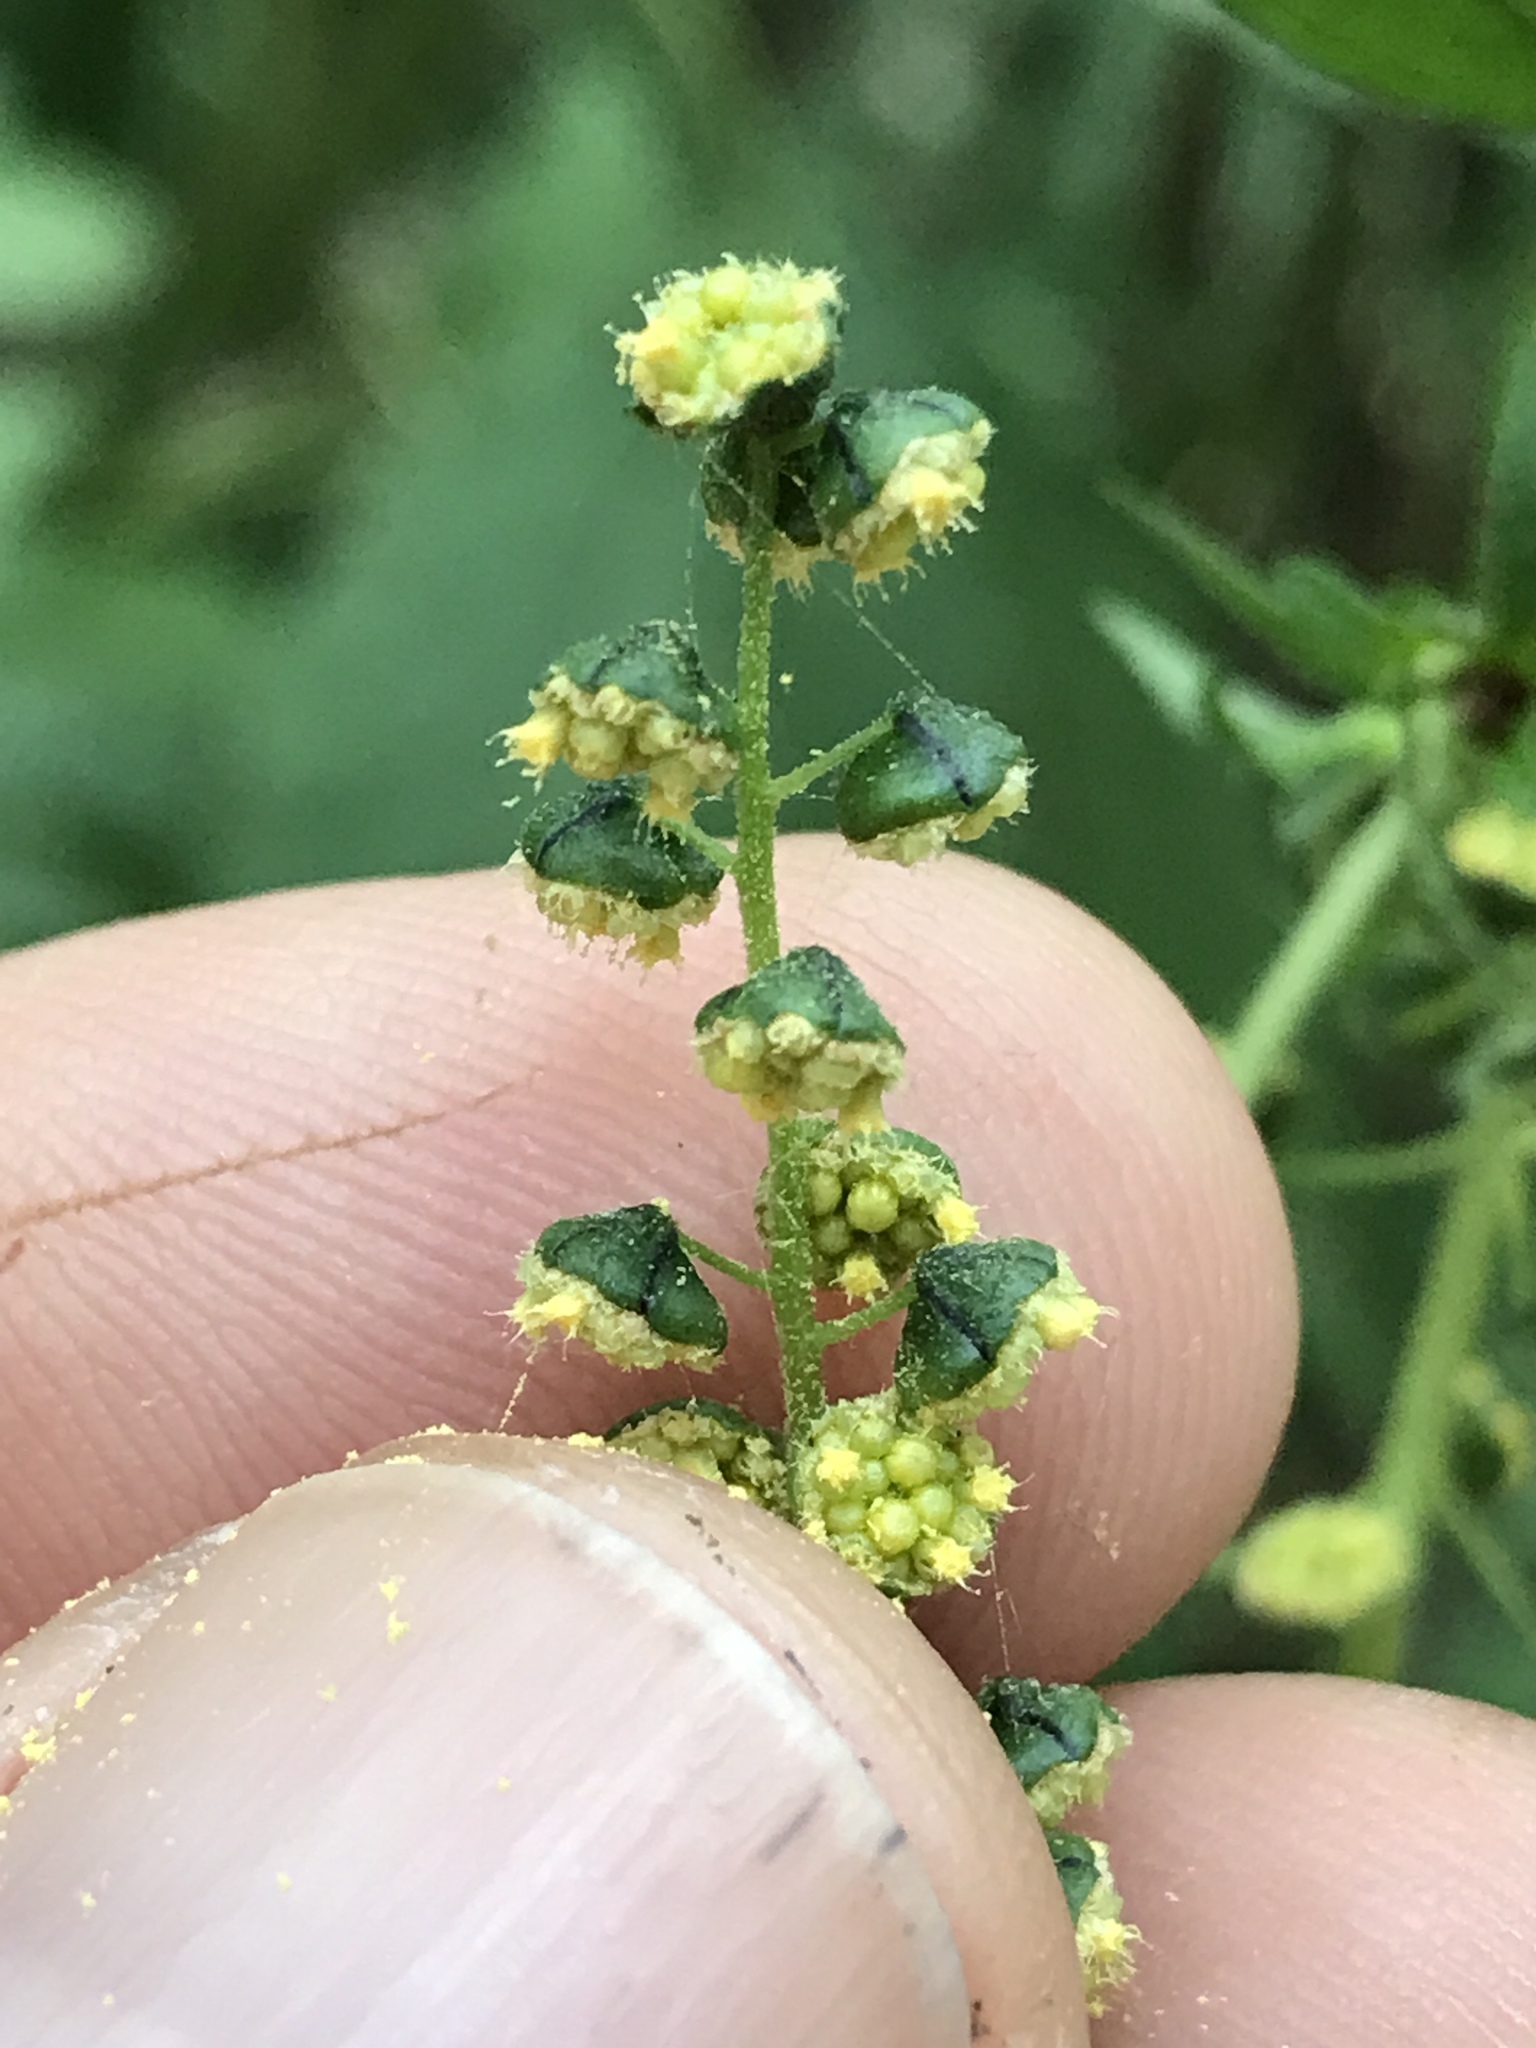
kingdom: Plantae
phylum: Tracheophyta
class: Magnoliopsida
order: Asterales
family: Asteraceae
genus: Ambrosia
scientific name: Ambrosia trifida
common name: Giant ragweed
